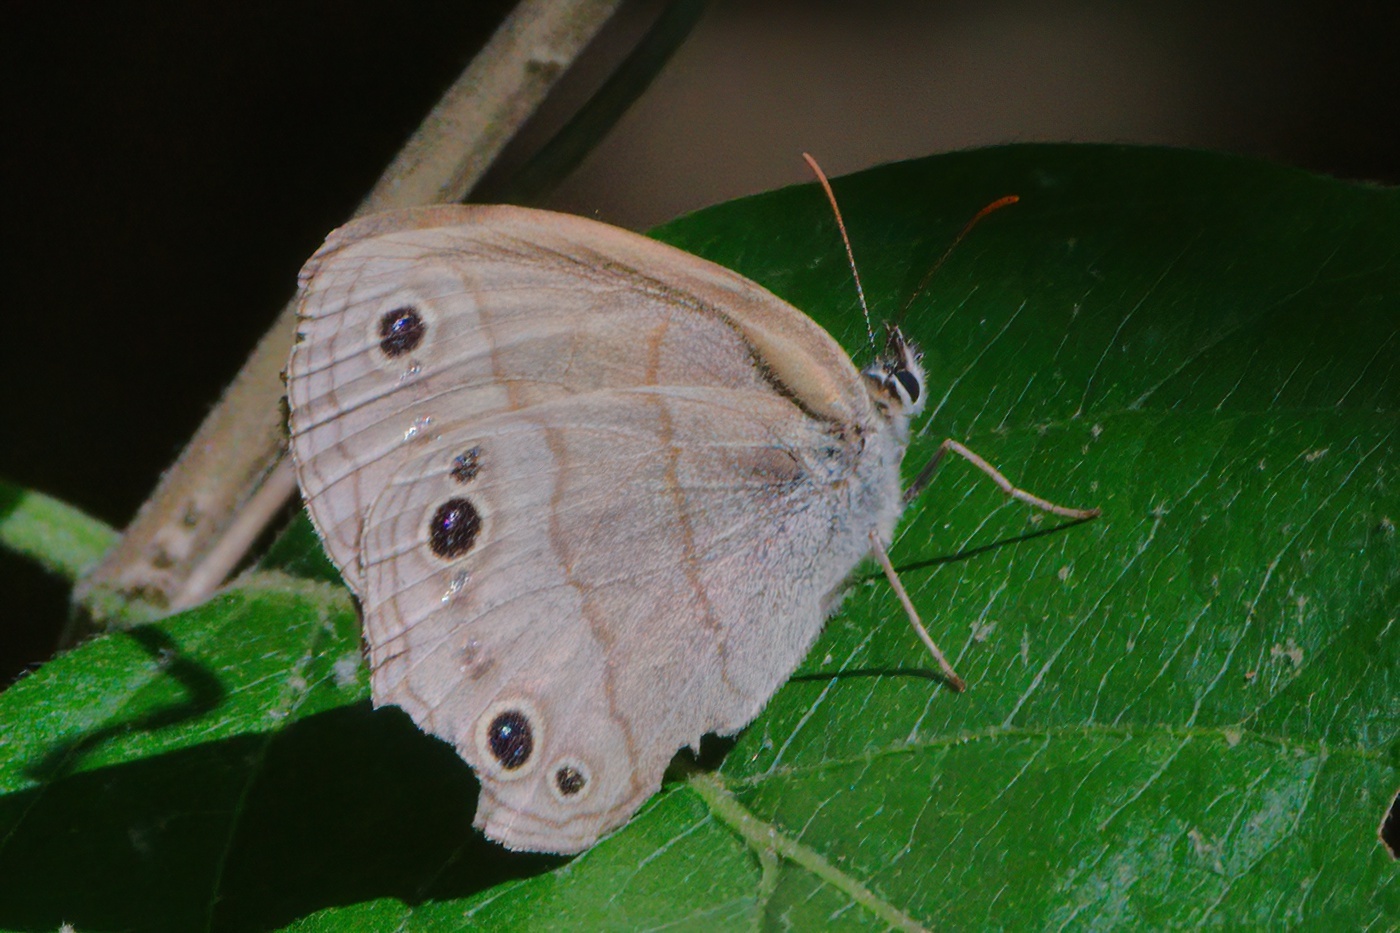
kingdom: Animalia
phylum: Arthropoda
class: Insecta
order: Lepidoptera
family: Nymphalidae
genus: Euptychia
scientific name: Euptychia cymela
